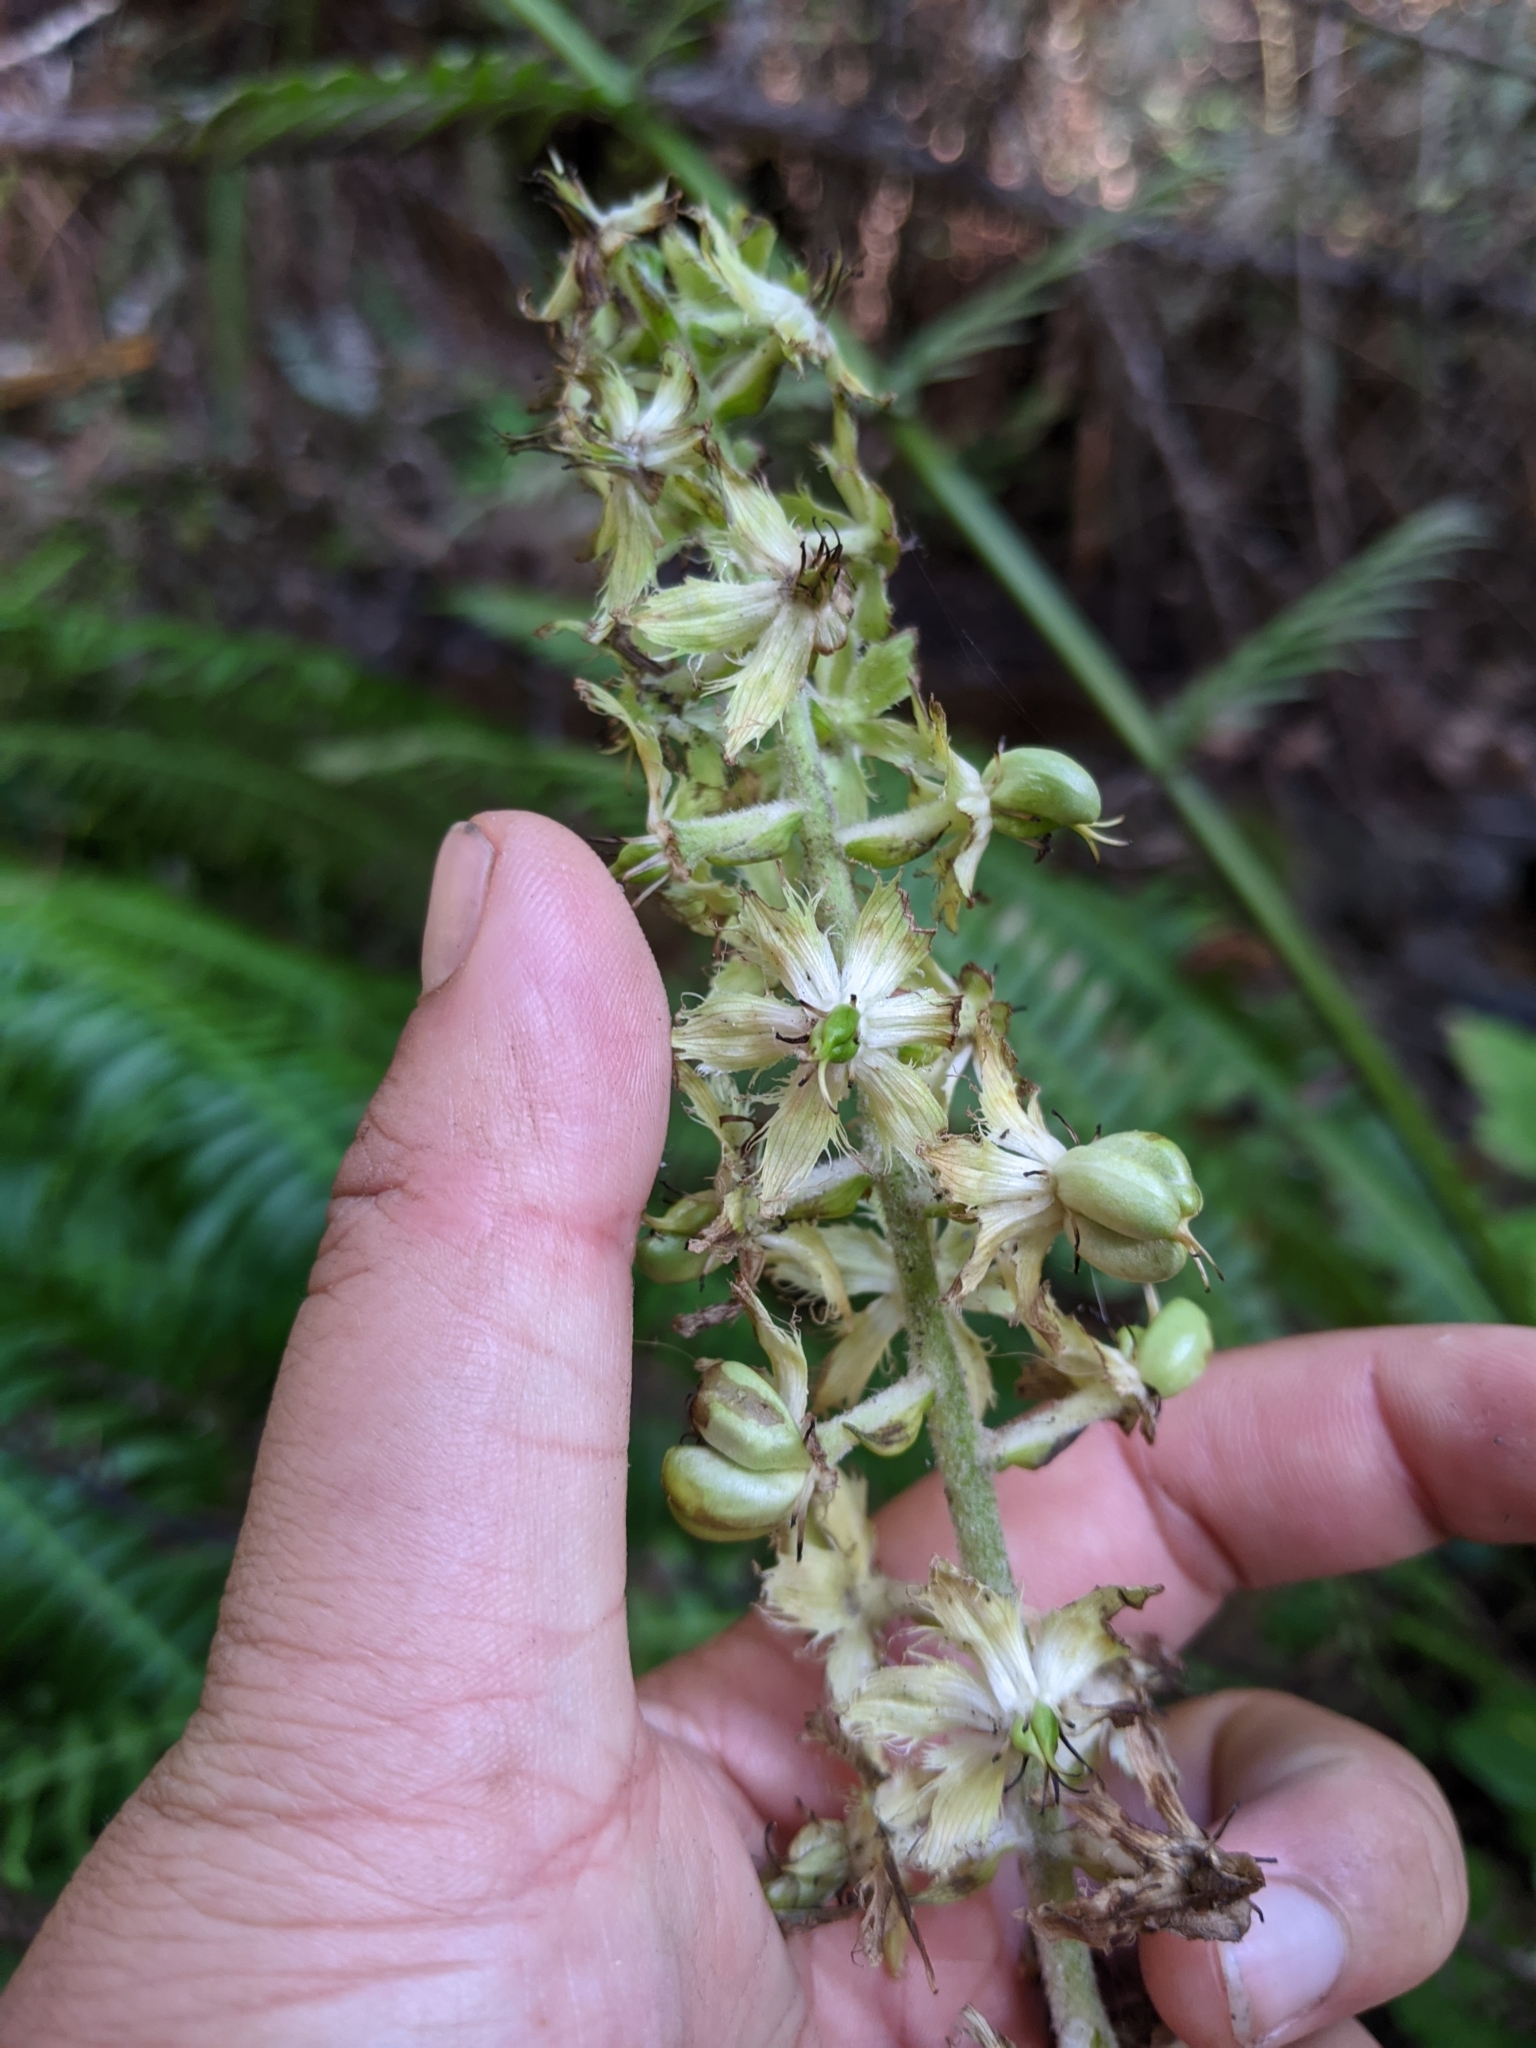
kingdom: Plantae
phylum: Tracheophyta
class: Liliopsida
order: Liliales
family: Melanthiaceae
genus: Veratrum
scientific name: Veratrum fimbriatum
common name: Fringe false hellobore
